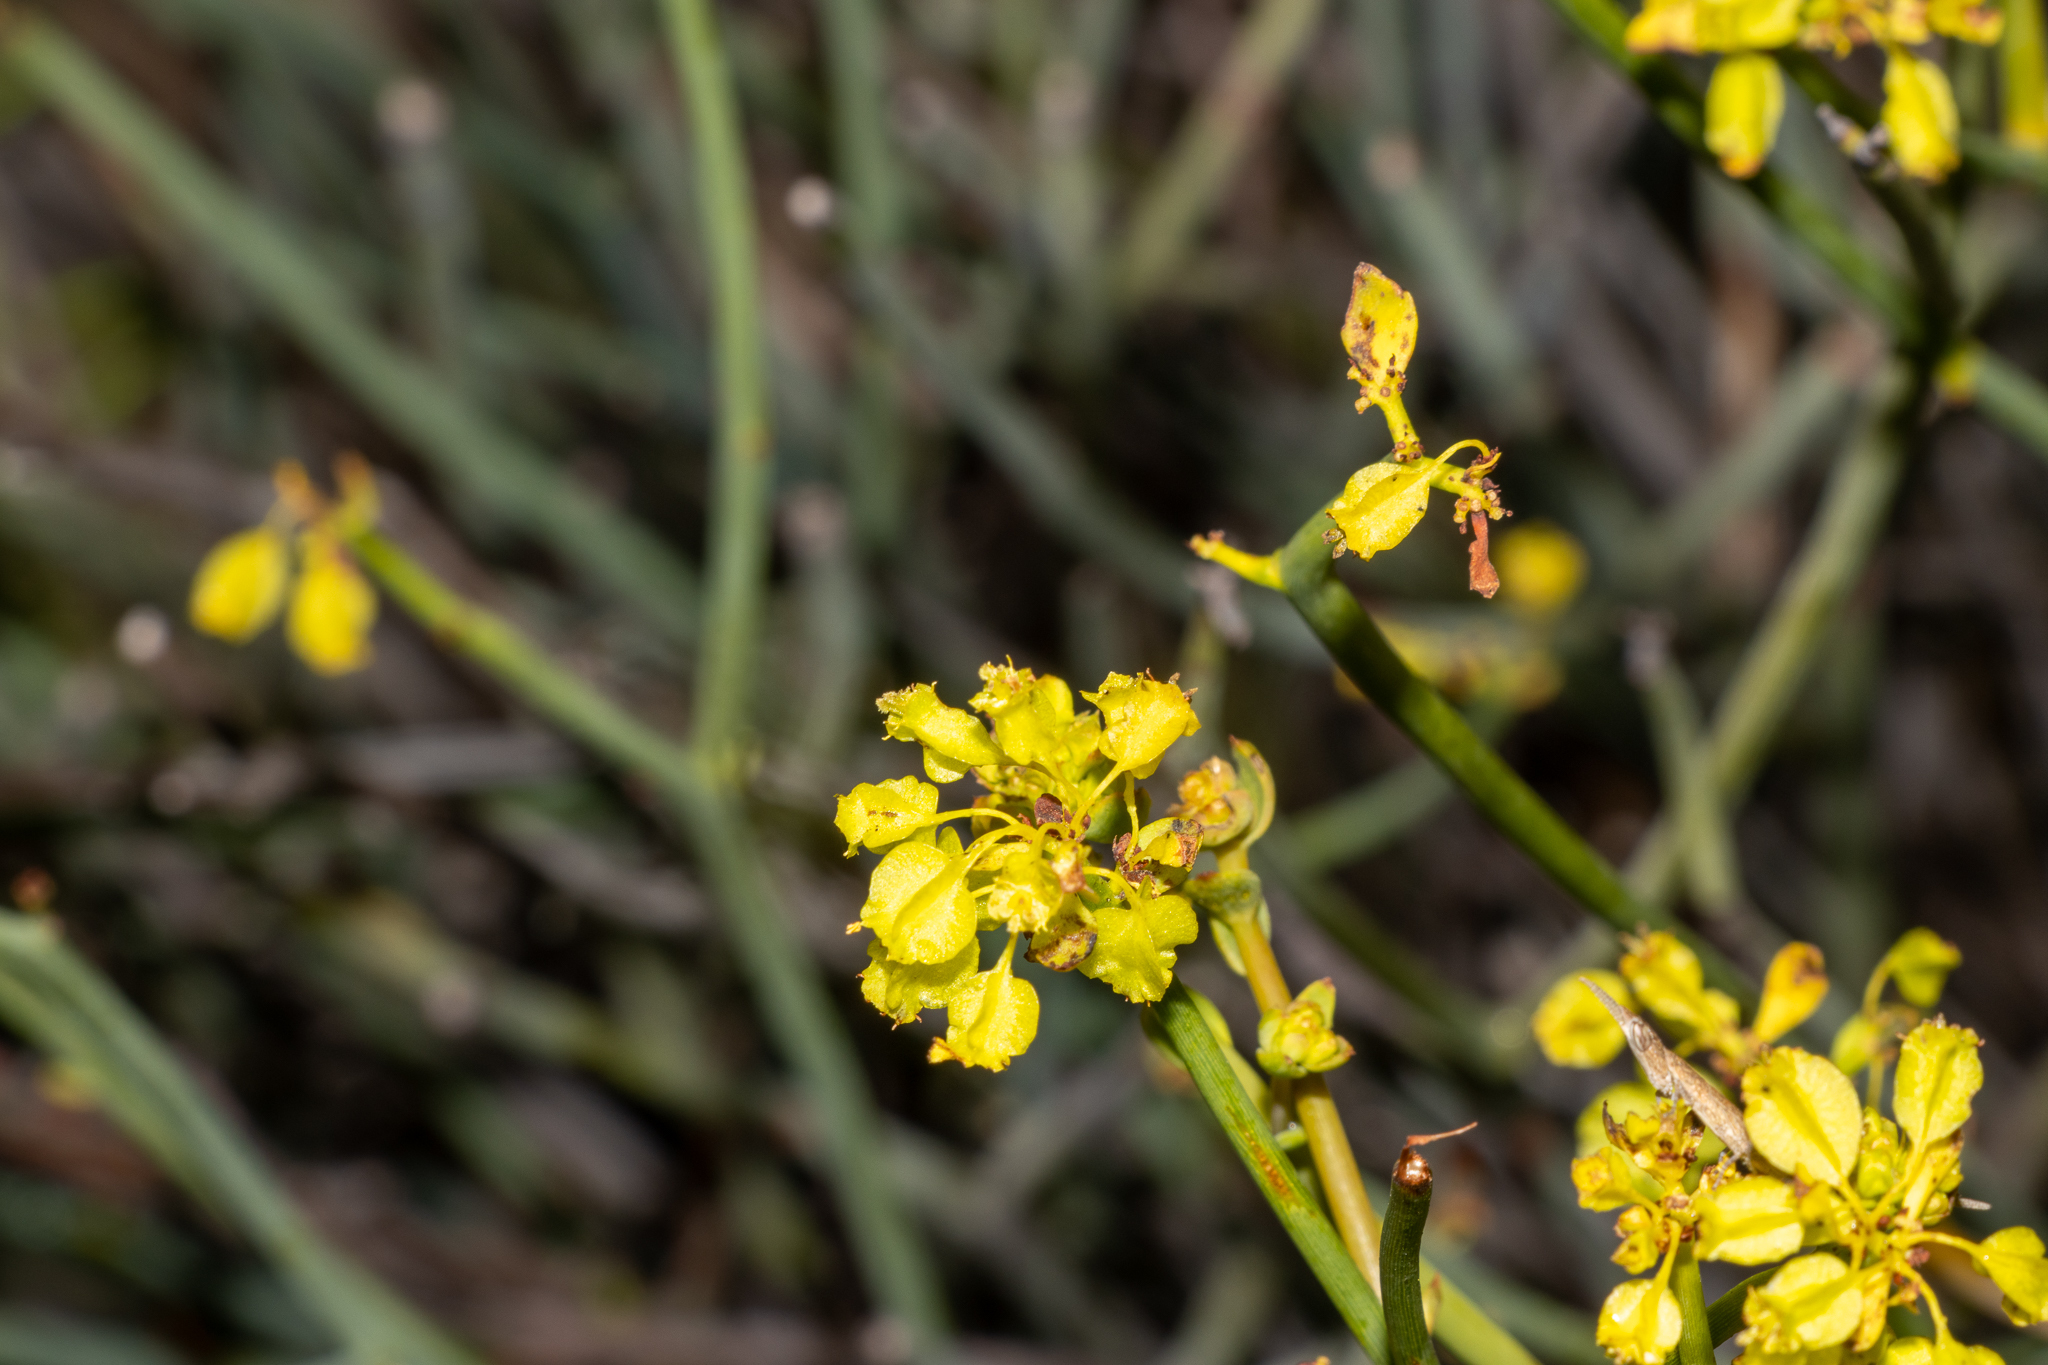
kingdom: Plantae
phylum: Tracheophyta
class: Magnoliopsida
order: Saxifragales
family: Haloragaceae
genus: Glischrocaryon
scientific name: Glischrocaryon aureum
